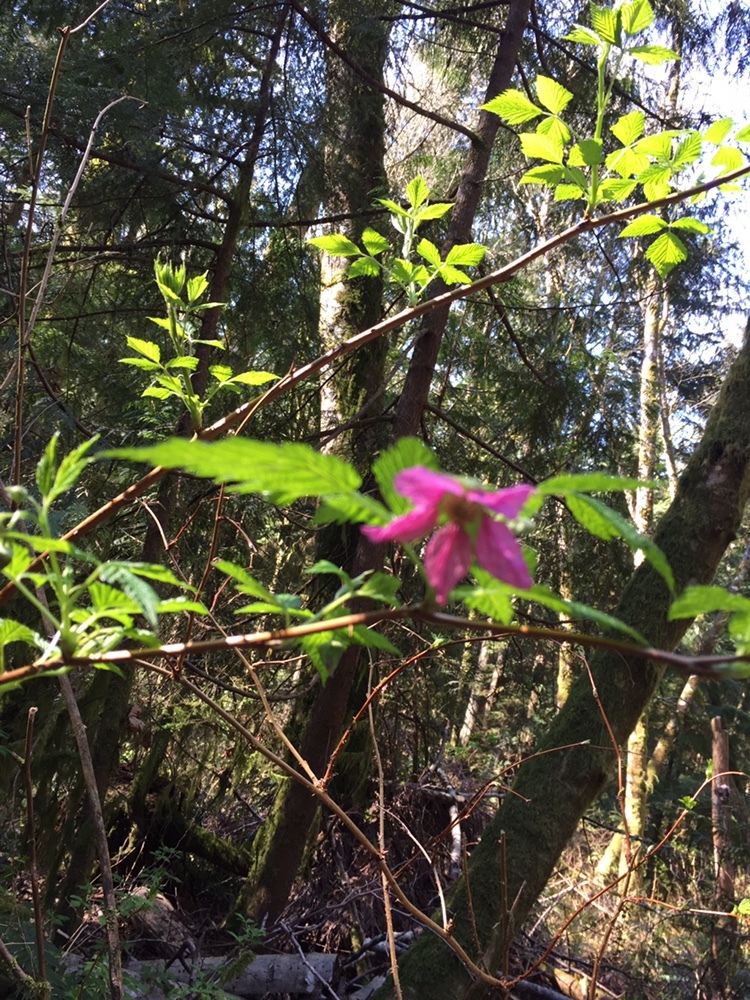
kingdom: Plantae
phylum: Tracheophyta
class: Magnoliopsida
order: Rosales
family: Rosaceae
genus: Rubus
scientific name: Rubus spectabilis
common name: Salmonberry
